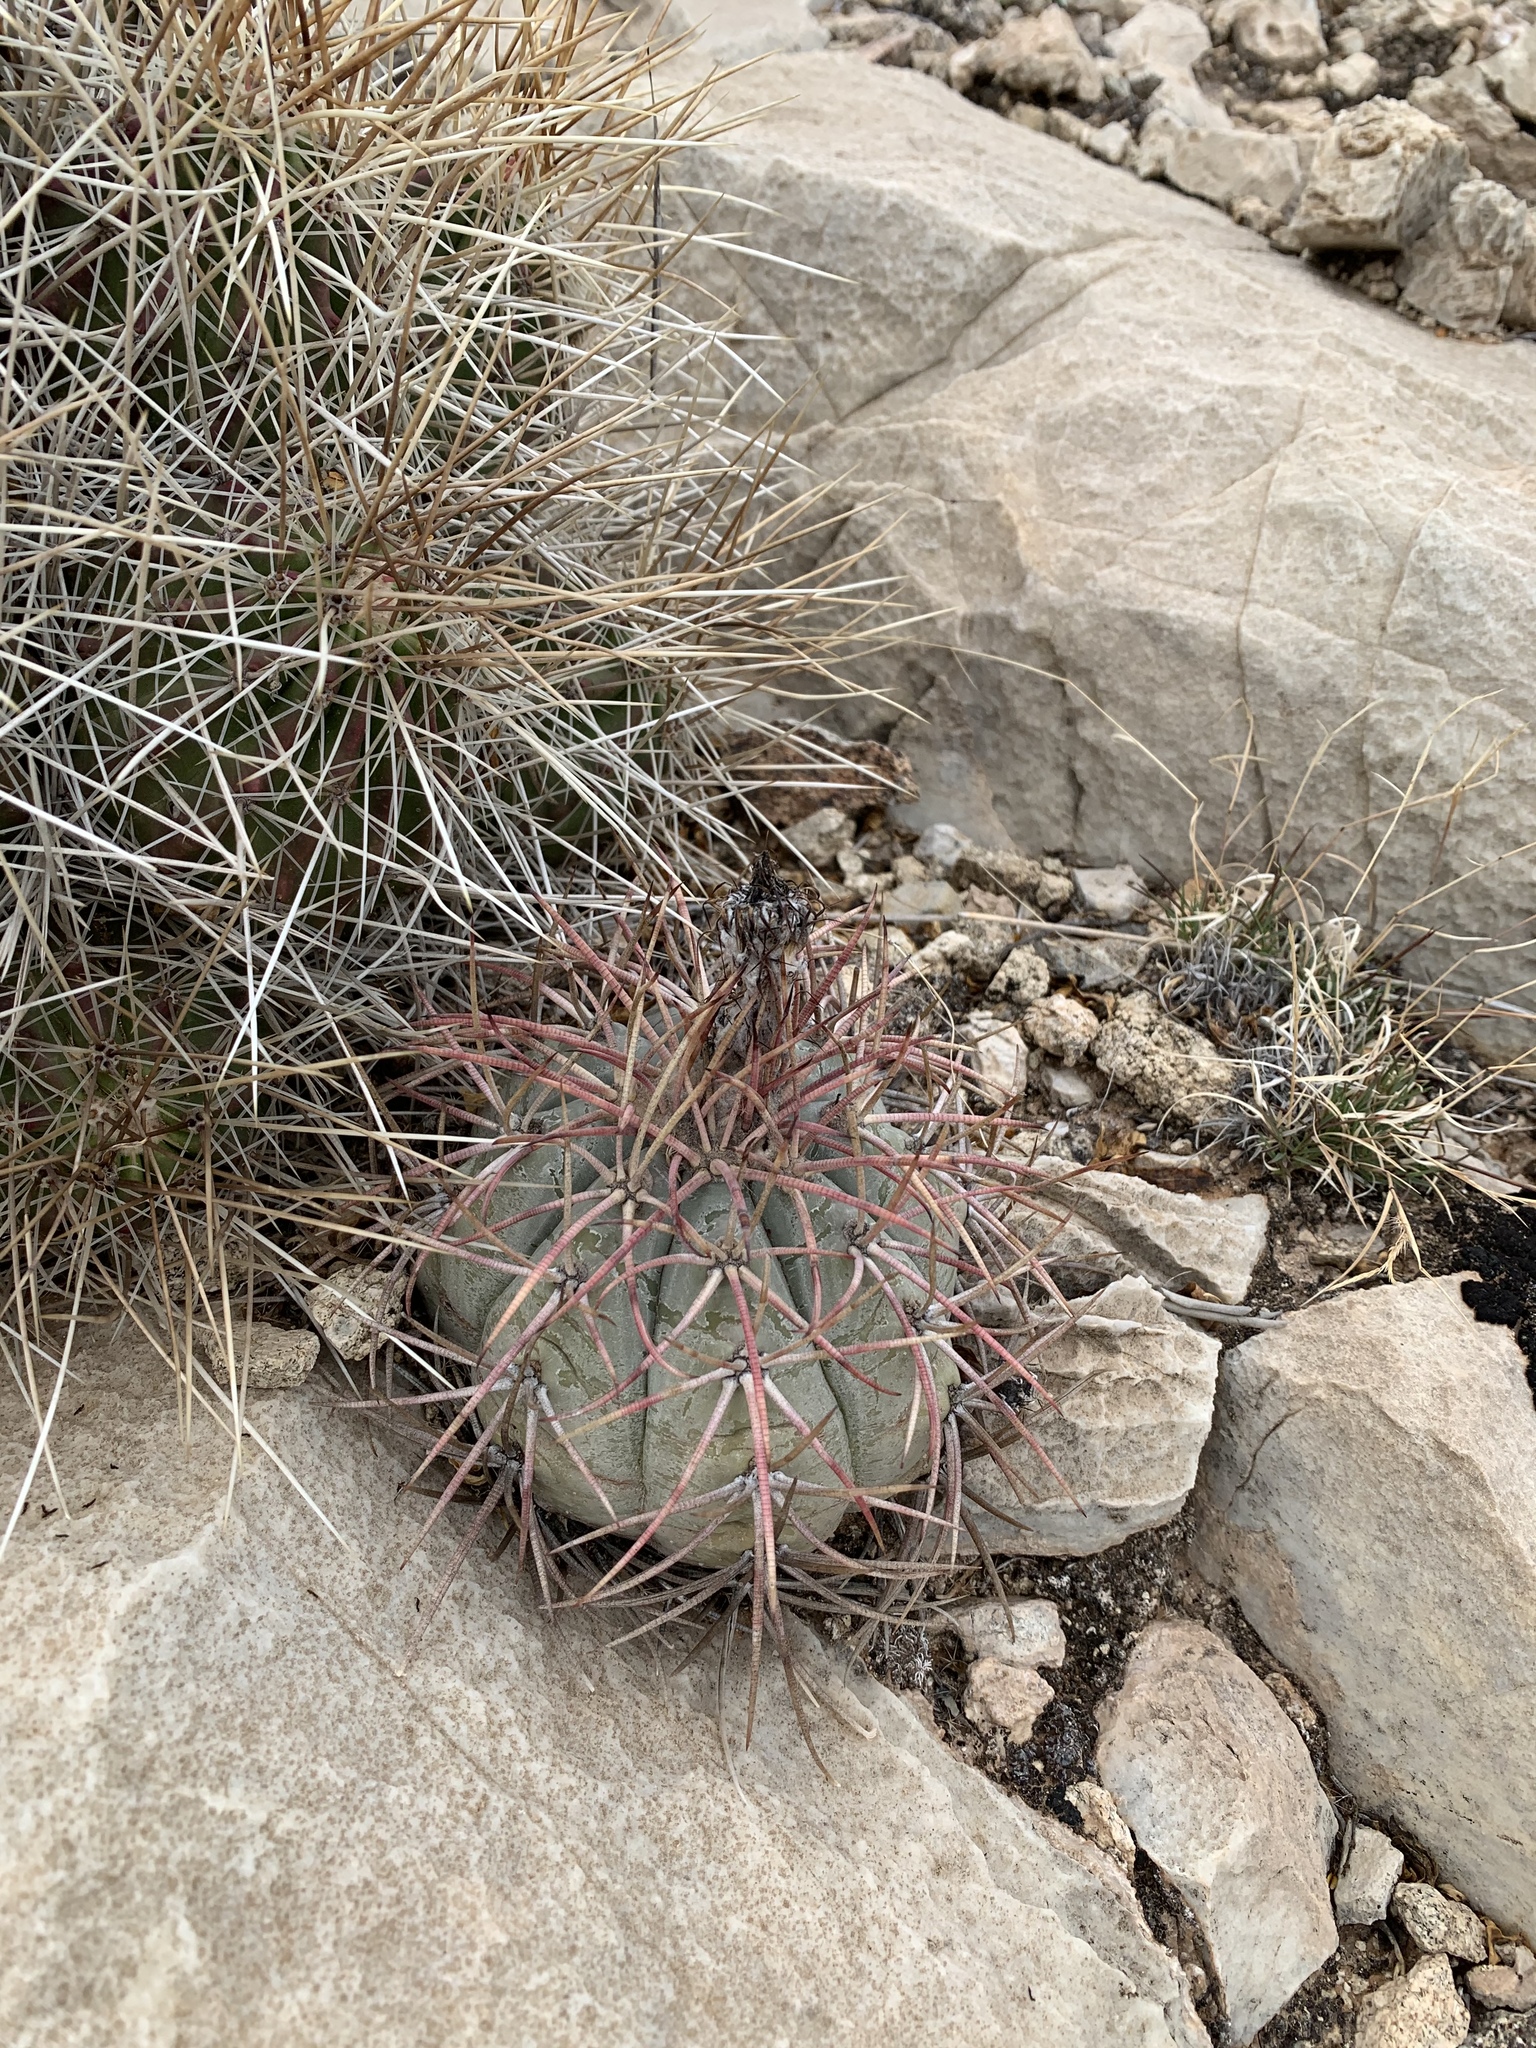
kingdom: Plantae
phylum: Tracheophyta
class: Magnoliopsida
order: Caryophyllales
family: Cactaceae
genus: Echinocactus
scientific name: Echinocactus horizonthalonius
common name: Devilshead
